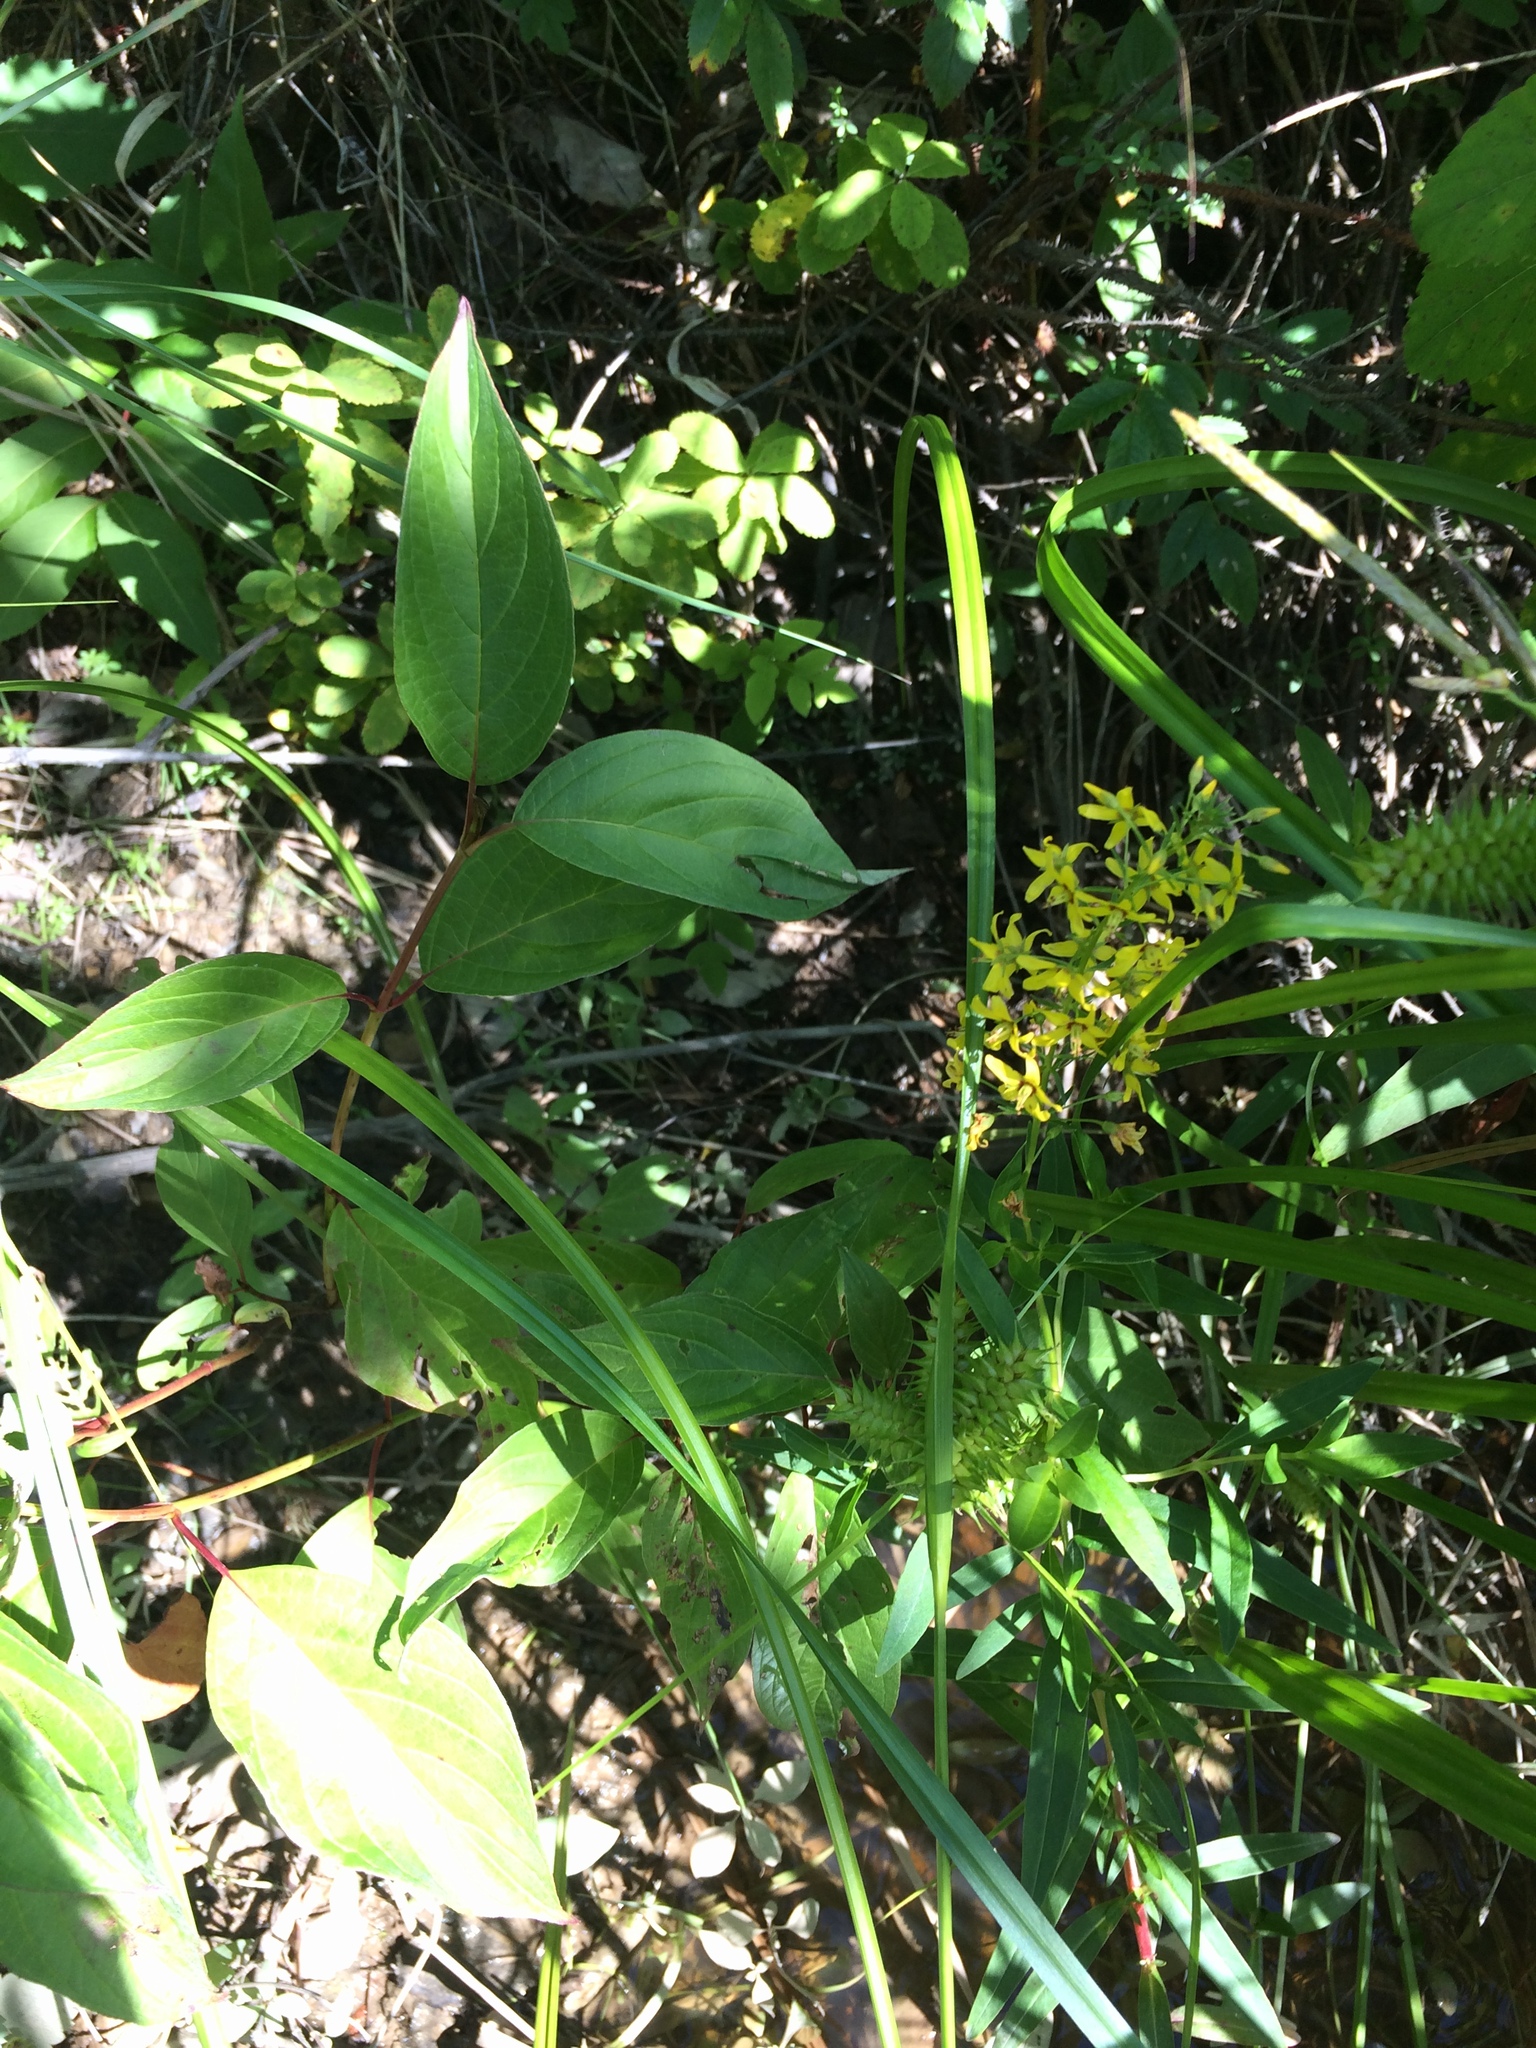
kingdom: Plantae
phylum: Tracheophyta
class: Magnoliopsida
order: Ericales
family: Primulaceae
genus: Lysimachia
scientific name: Lysimachia terrestris
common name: Lake loosestrife
